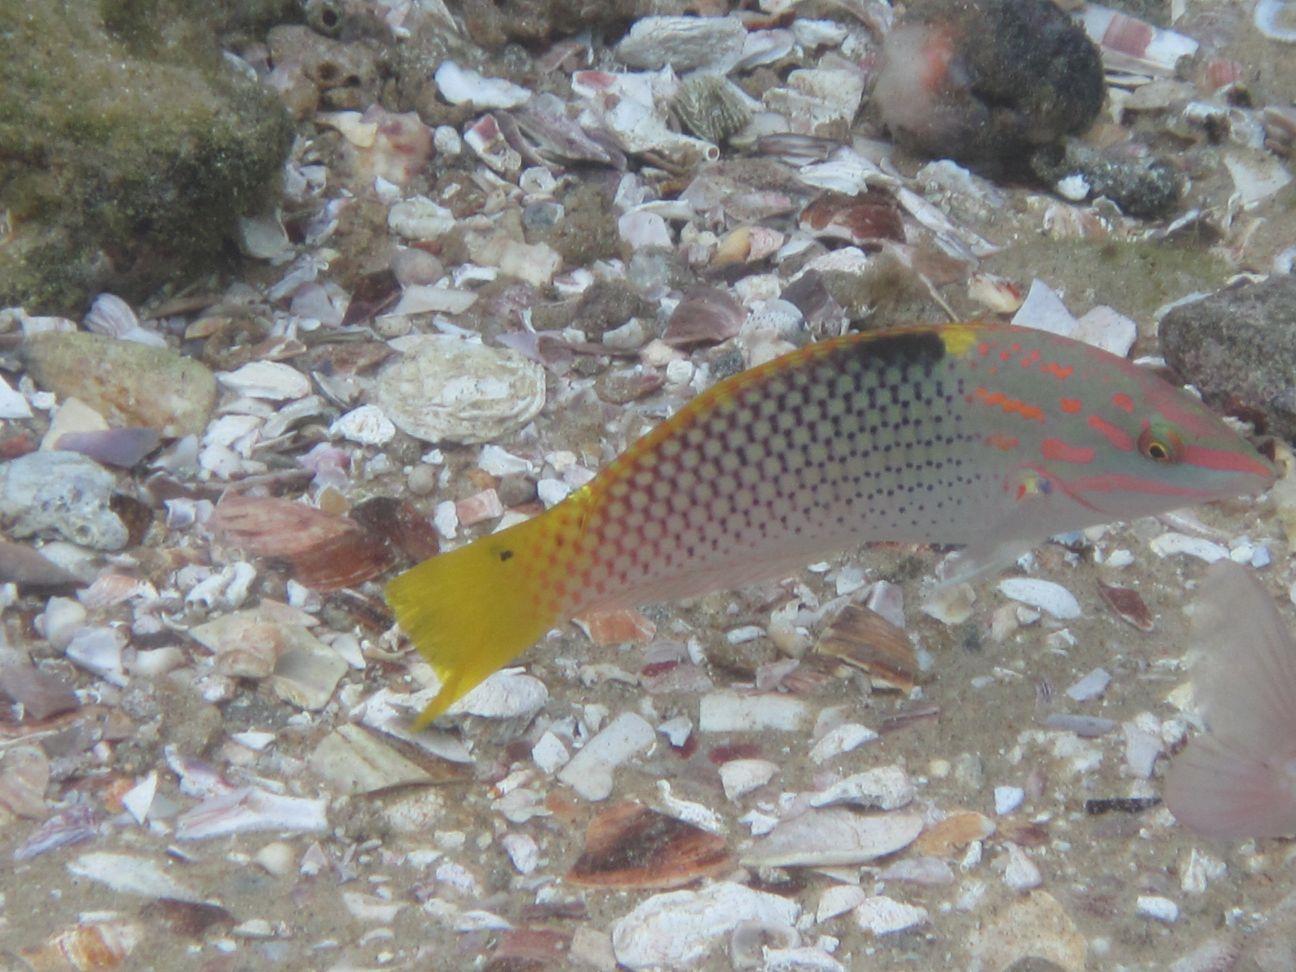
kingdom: Animalia
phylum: Chordata
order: Perciformes
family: Labridae
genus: Halichoeres
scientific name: Halichoeres hortulanus
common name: Checkerboard wrasse
